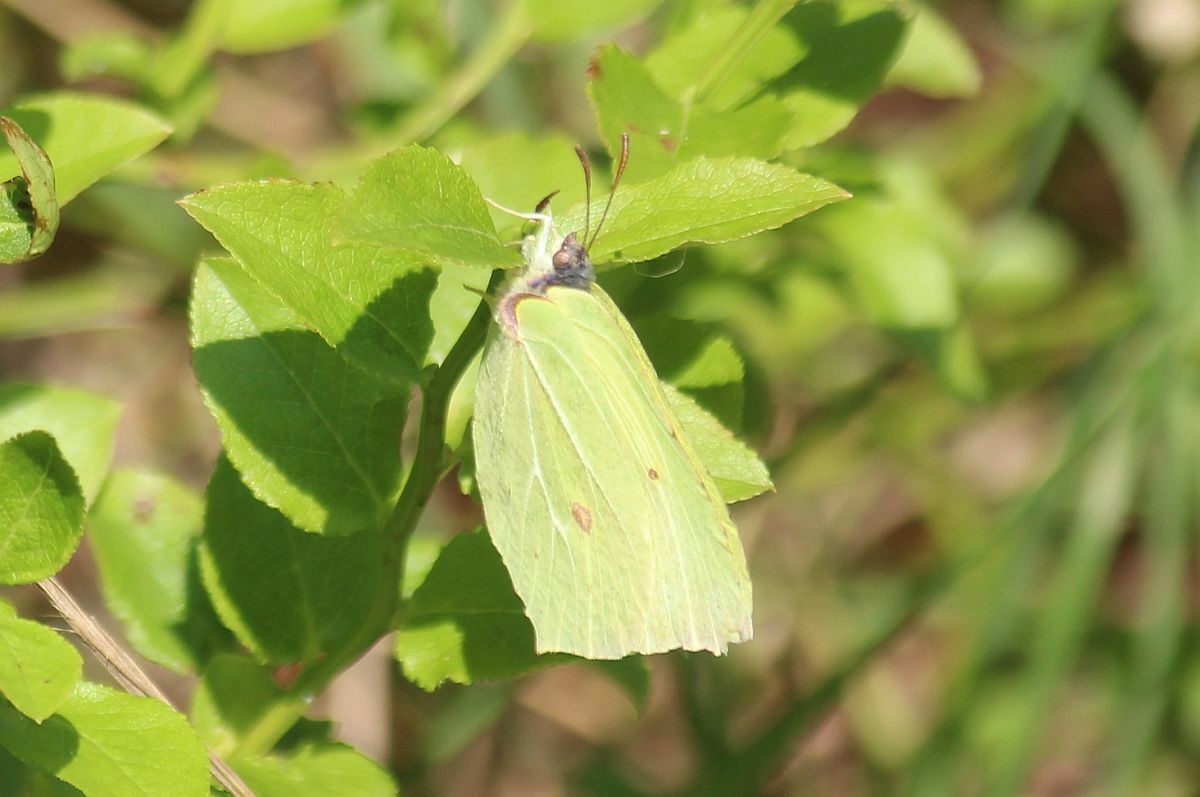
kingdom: Animalia
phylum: Arthropoda
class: Insecta
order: Lepidoptera
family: Pieridae
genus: Gonepteryx
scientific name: Gonepteryx rhamni
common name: Brimstone
